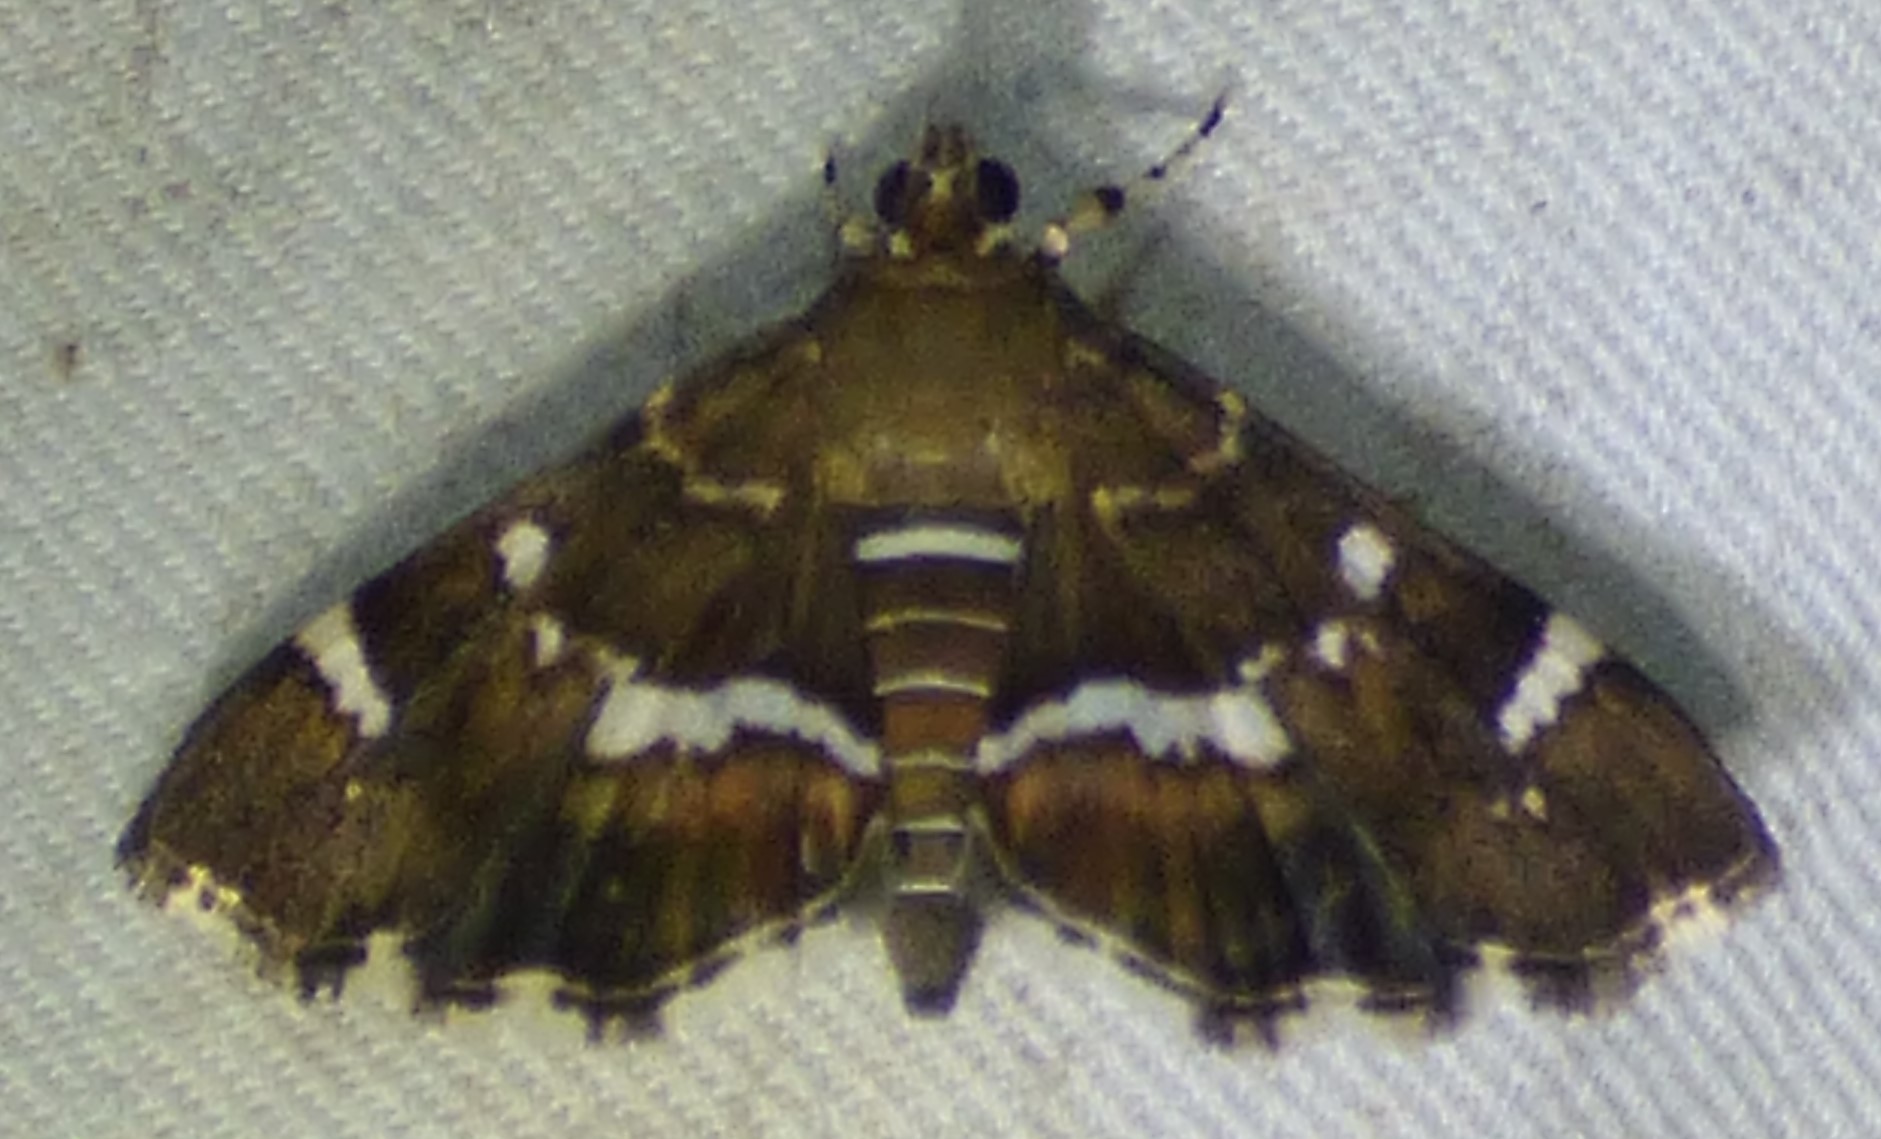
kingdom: Animalia
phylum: Arthropoda
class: Insecta
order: Lepidoptera
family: Crambidae
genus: Hymenia
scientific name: Hymenia perspectalis
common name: Spotted beet webworm
